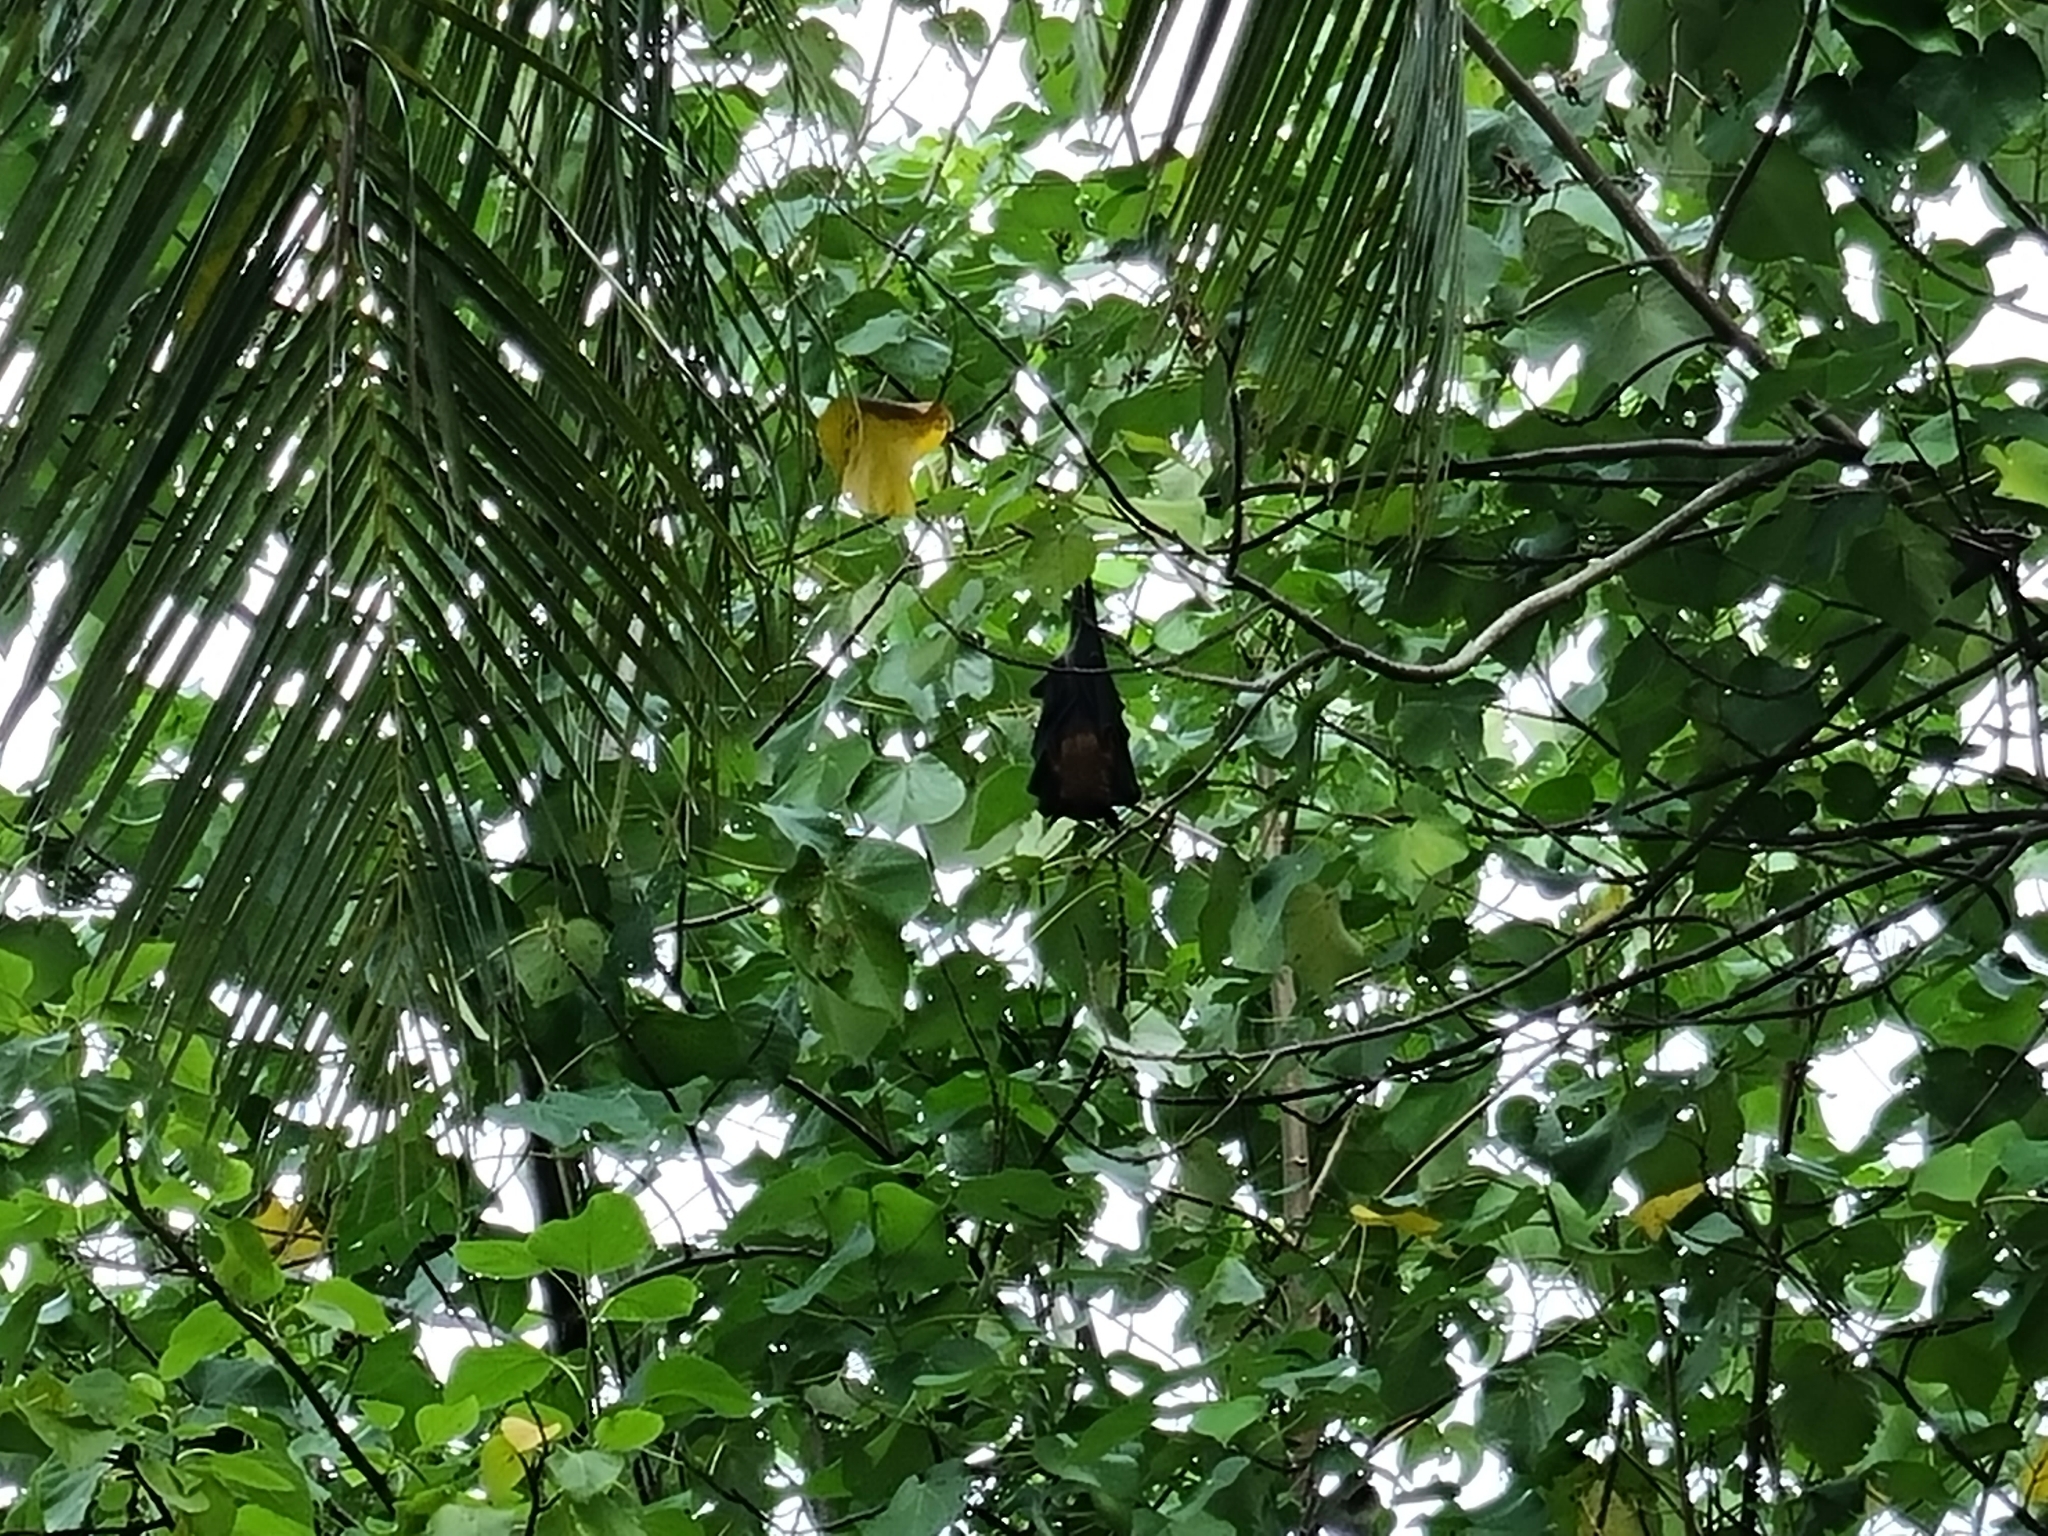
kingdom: Animalia
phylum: Chordata
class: Mammalia
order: Chiroptera
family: Pteropodidae
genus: Pteropus
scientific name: Pteropus vampyrus
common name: Large flying fox
